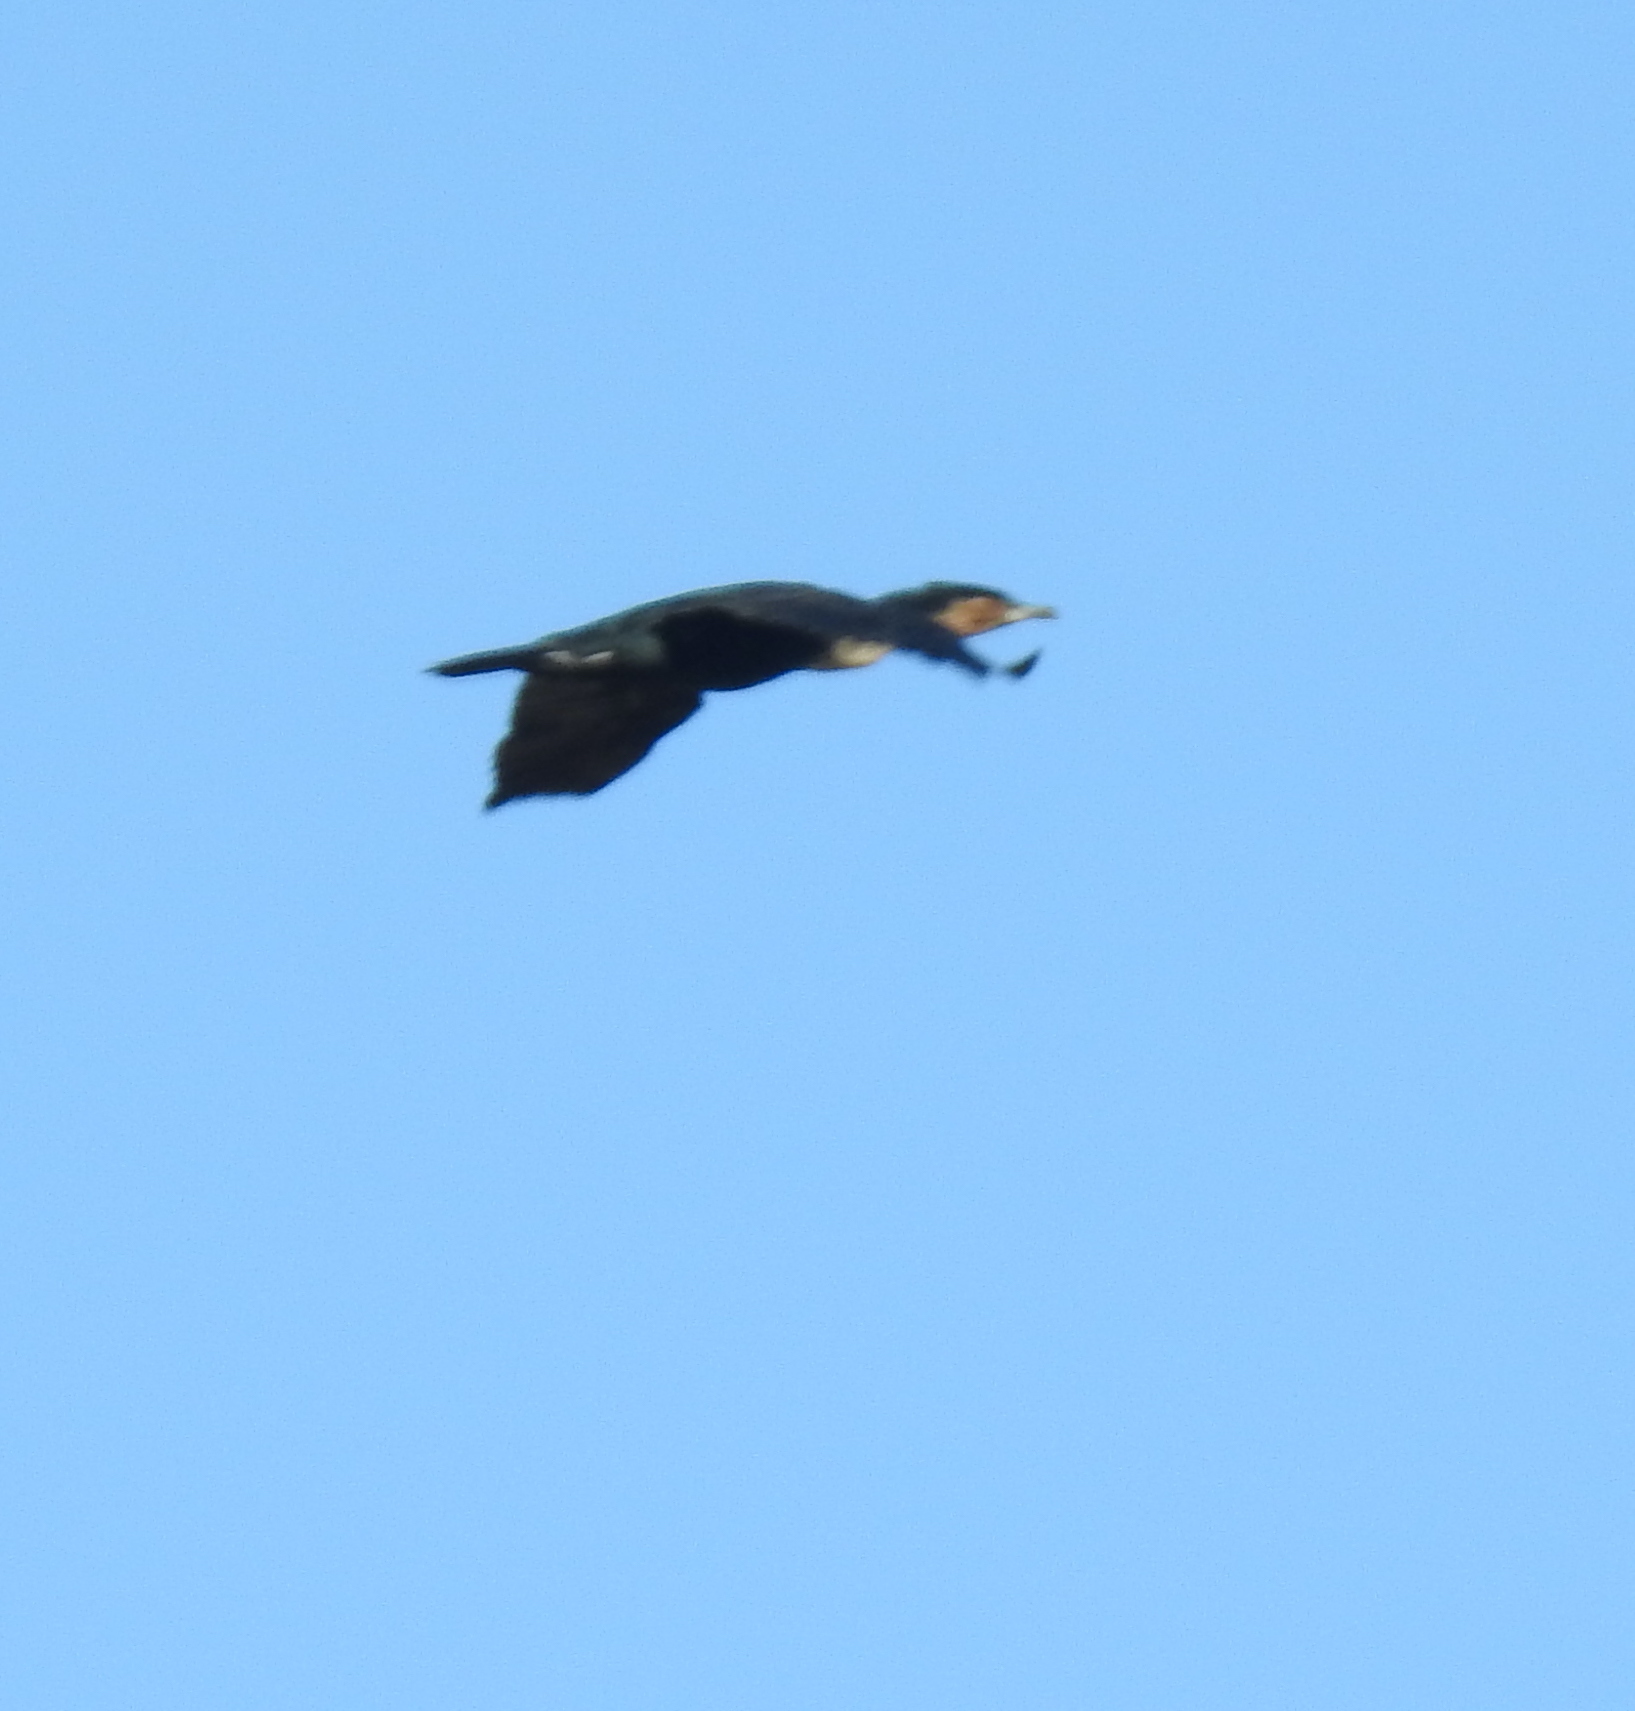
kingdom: Animalia
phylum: Chordata
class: Aves
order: Suliformes
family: Phalacrocoracidae
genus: Phalacrocorax
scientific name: Phalacrocorax carbo
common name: Great cormorant
